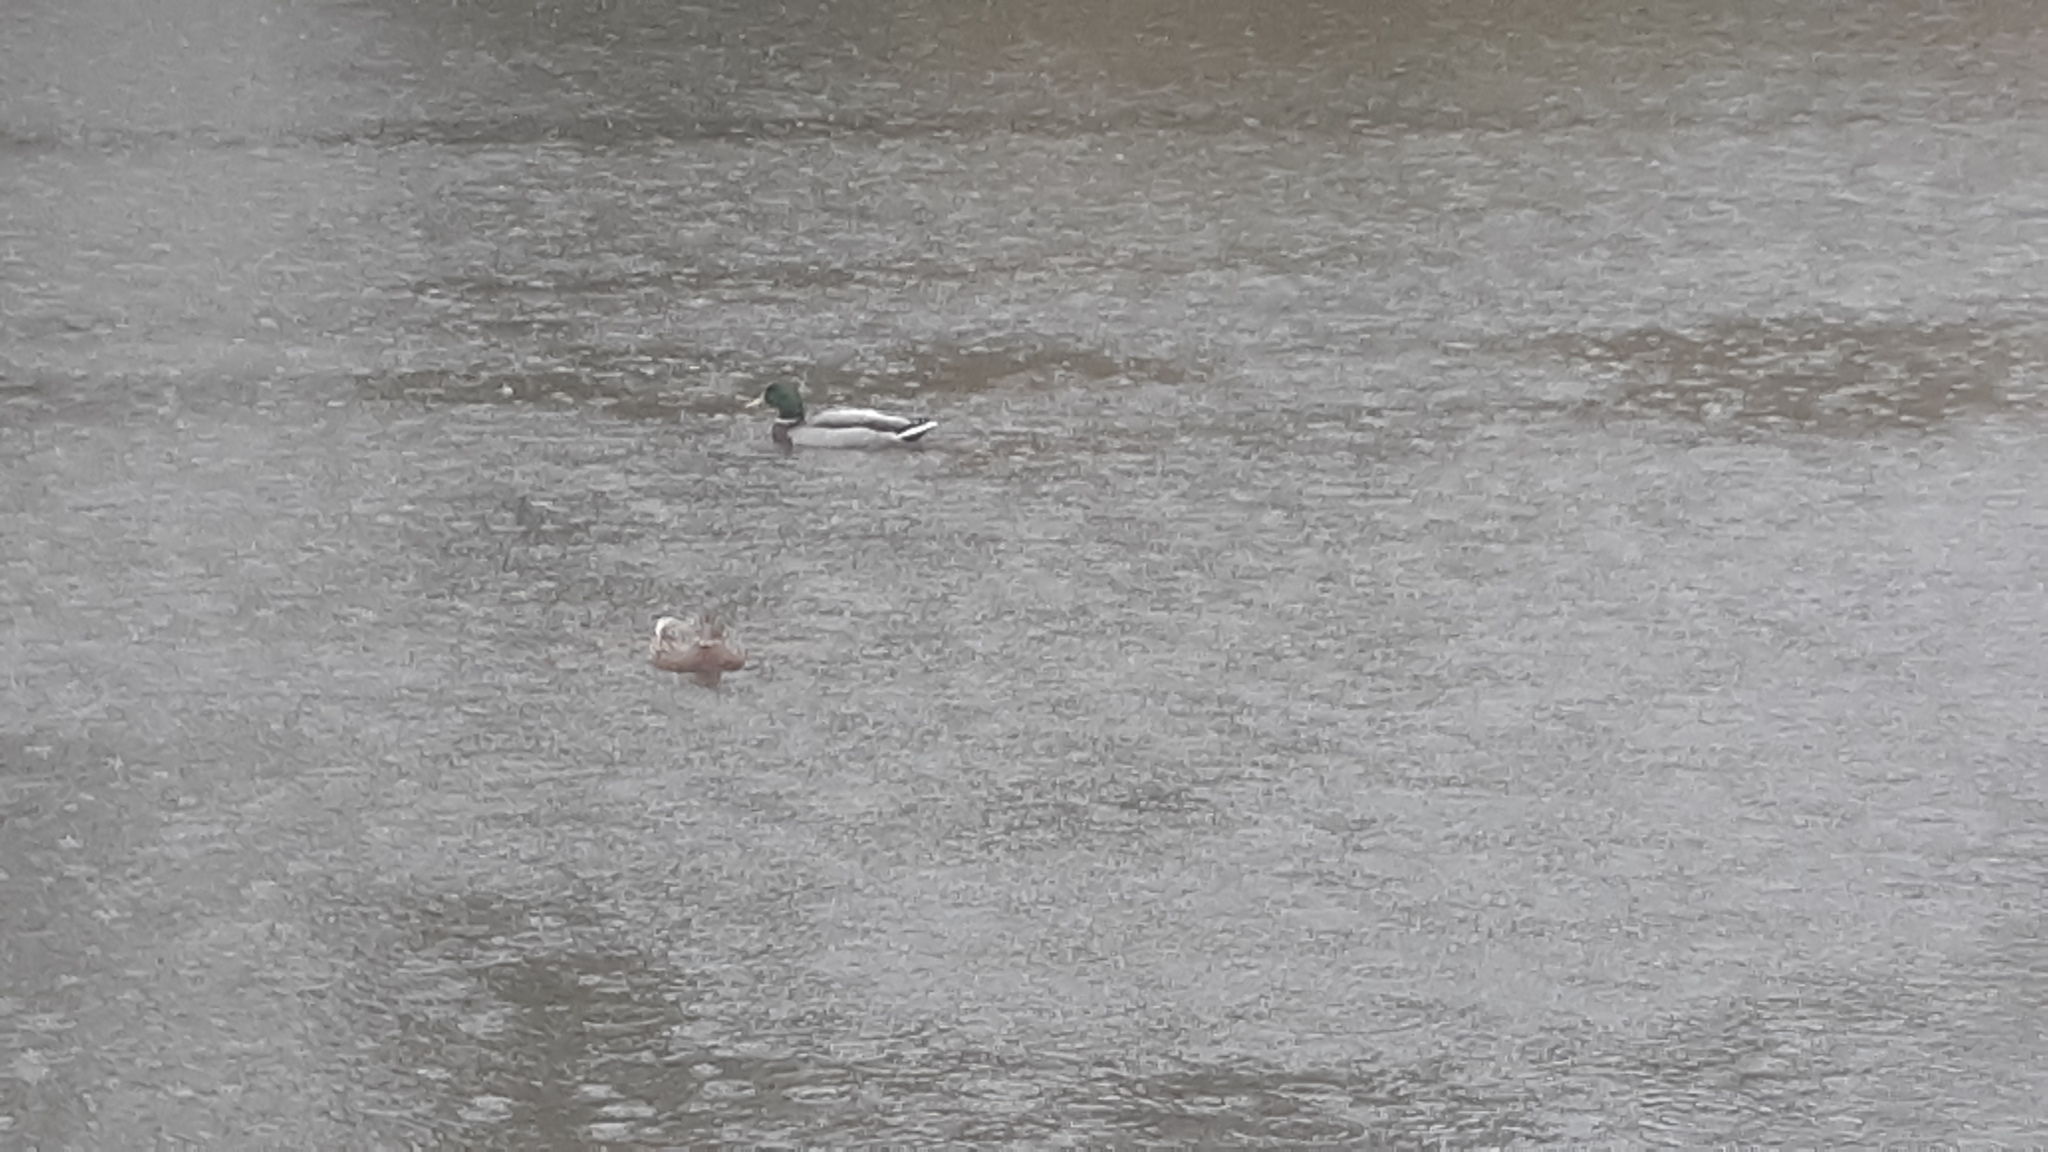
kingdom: Animalia
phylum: Chordata
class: Aves
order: Anseriformes
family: Anatidae
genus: Anas
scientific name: Anas platyrhynchos
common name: Mallard
